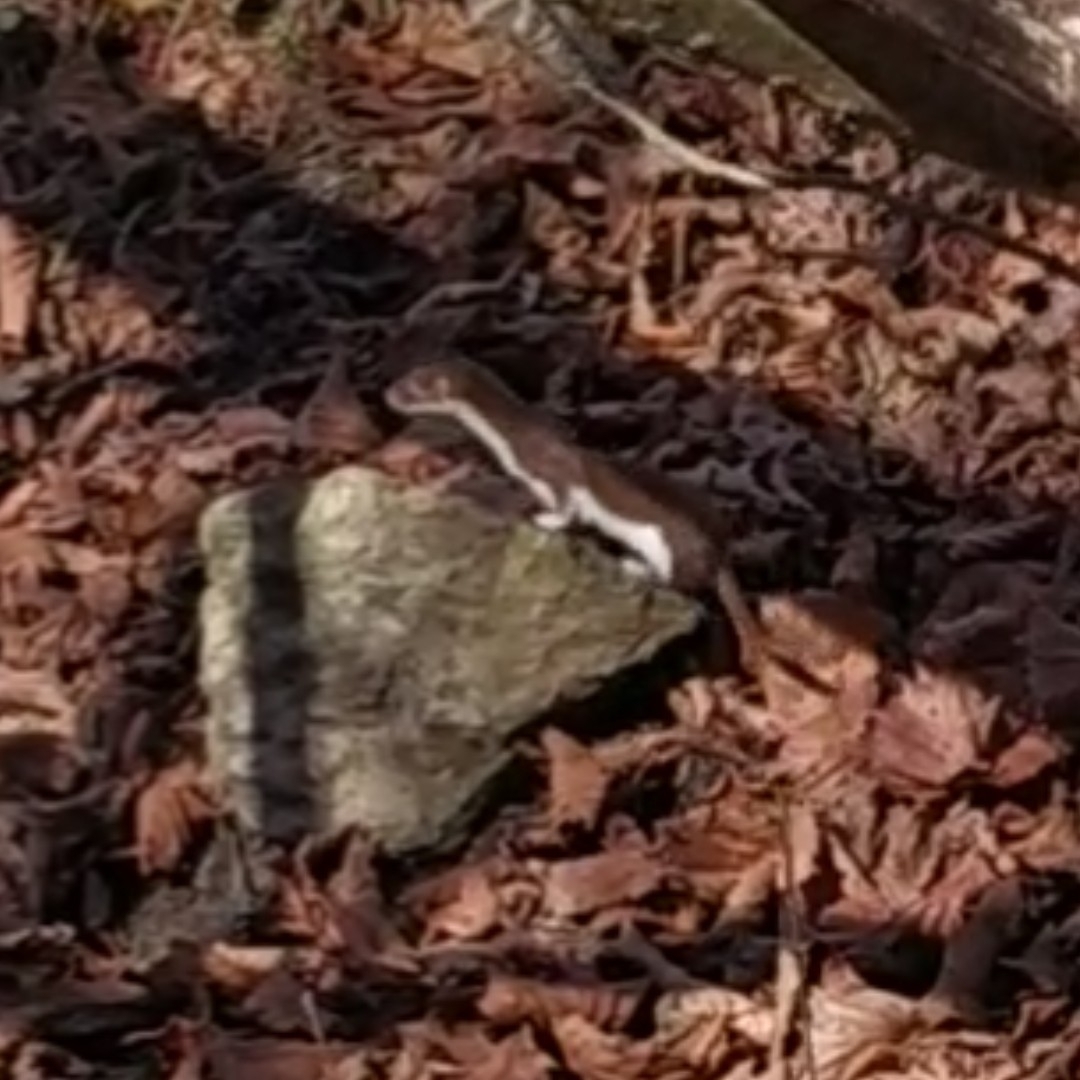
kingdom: Animalia
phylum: Chordata
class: Mammalia
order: Carnivora
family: Mustelidae
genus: Mustela
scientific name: Mustela nivalis
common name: Least weasel
